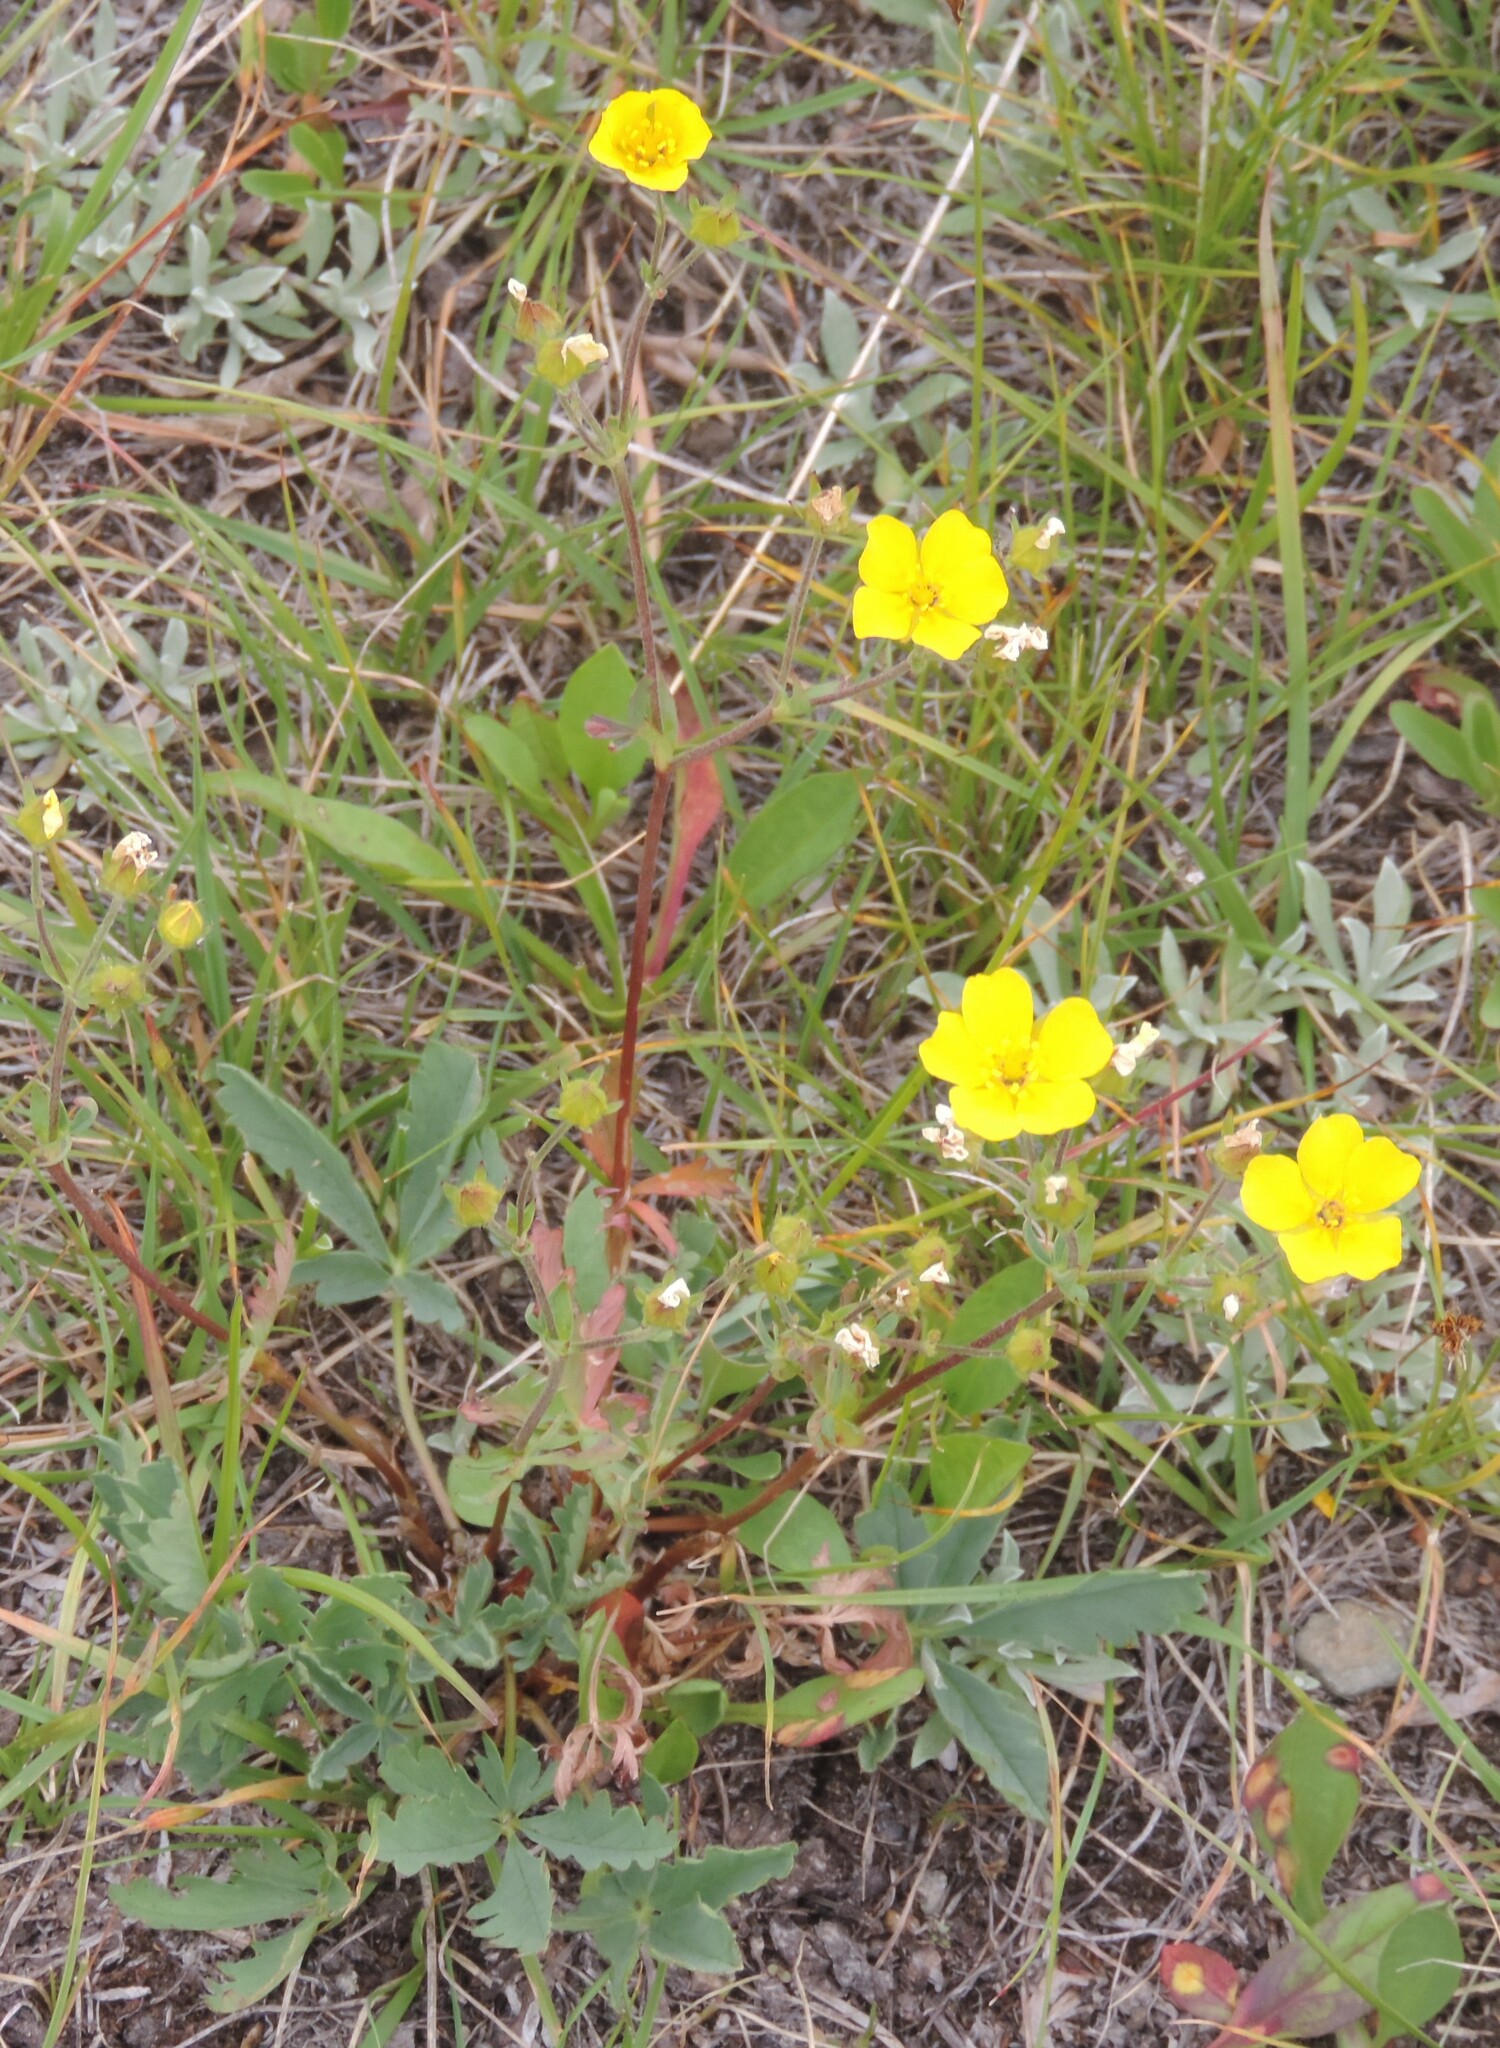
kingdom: Plantae
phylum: Tracheophyta
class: Magnoliopsida
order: Rosales
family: Rosaceae
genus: Potentilla
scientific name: Potentilla glaucophylla
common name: Blue-leaved cinquefoil
